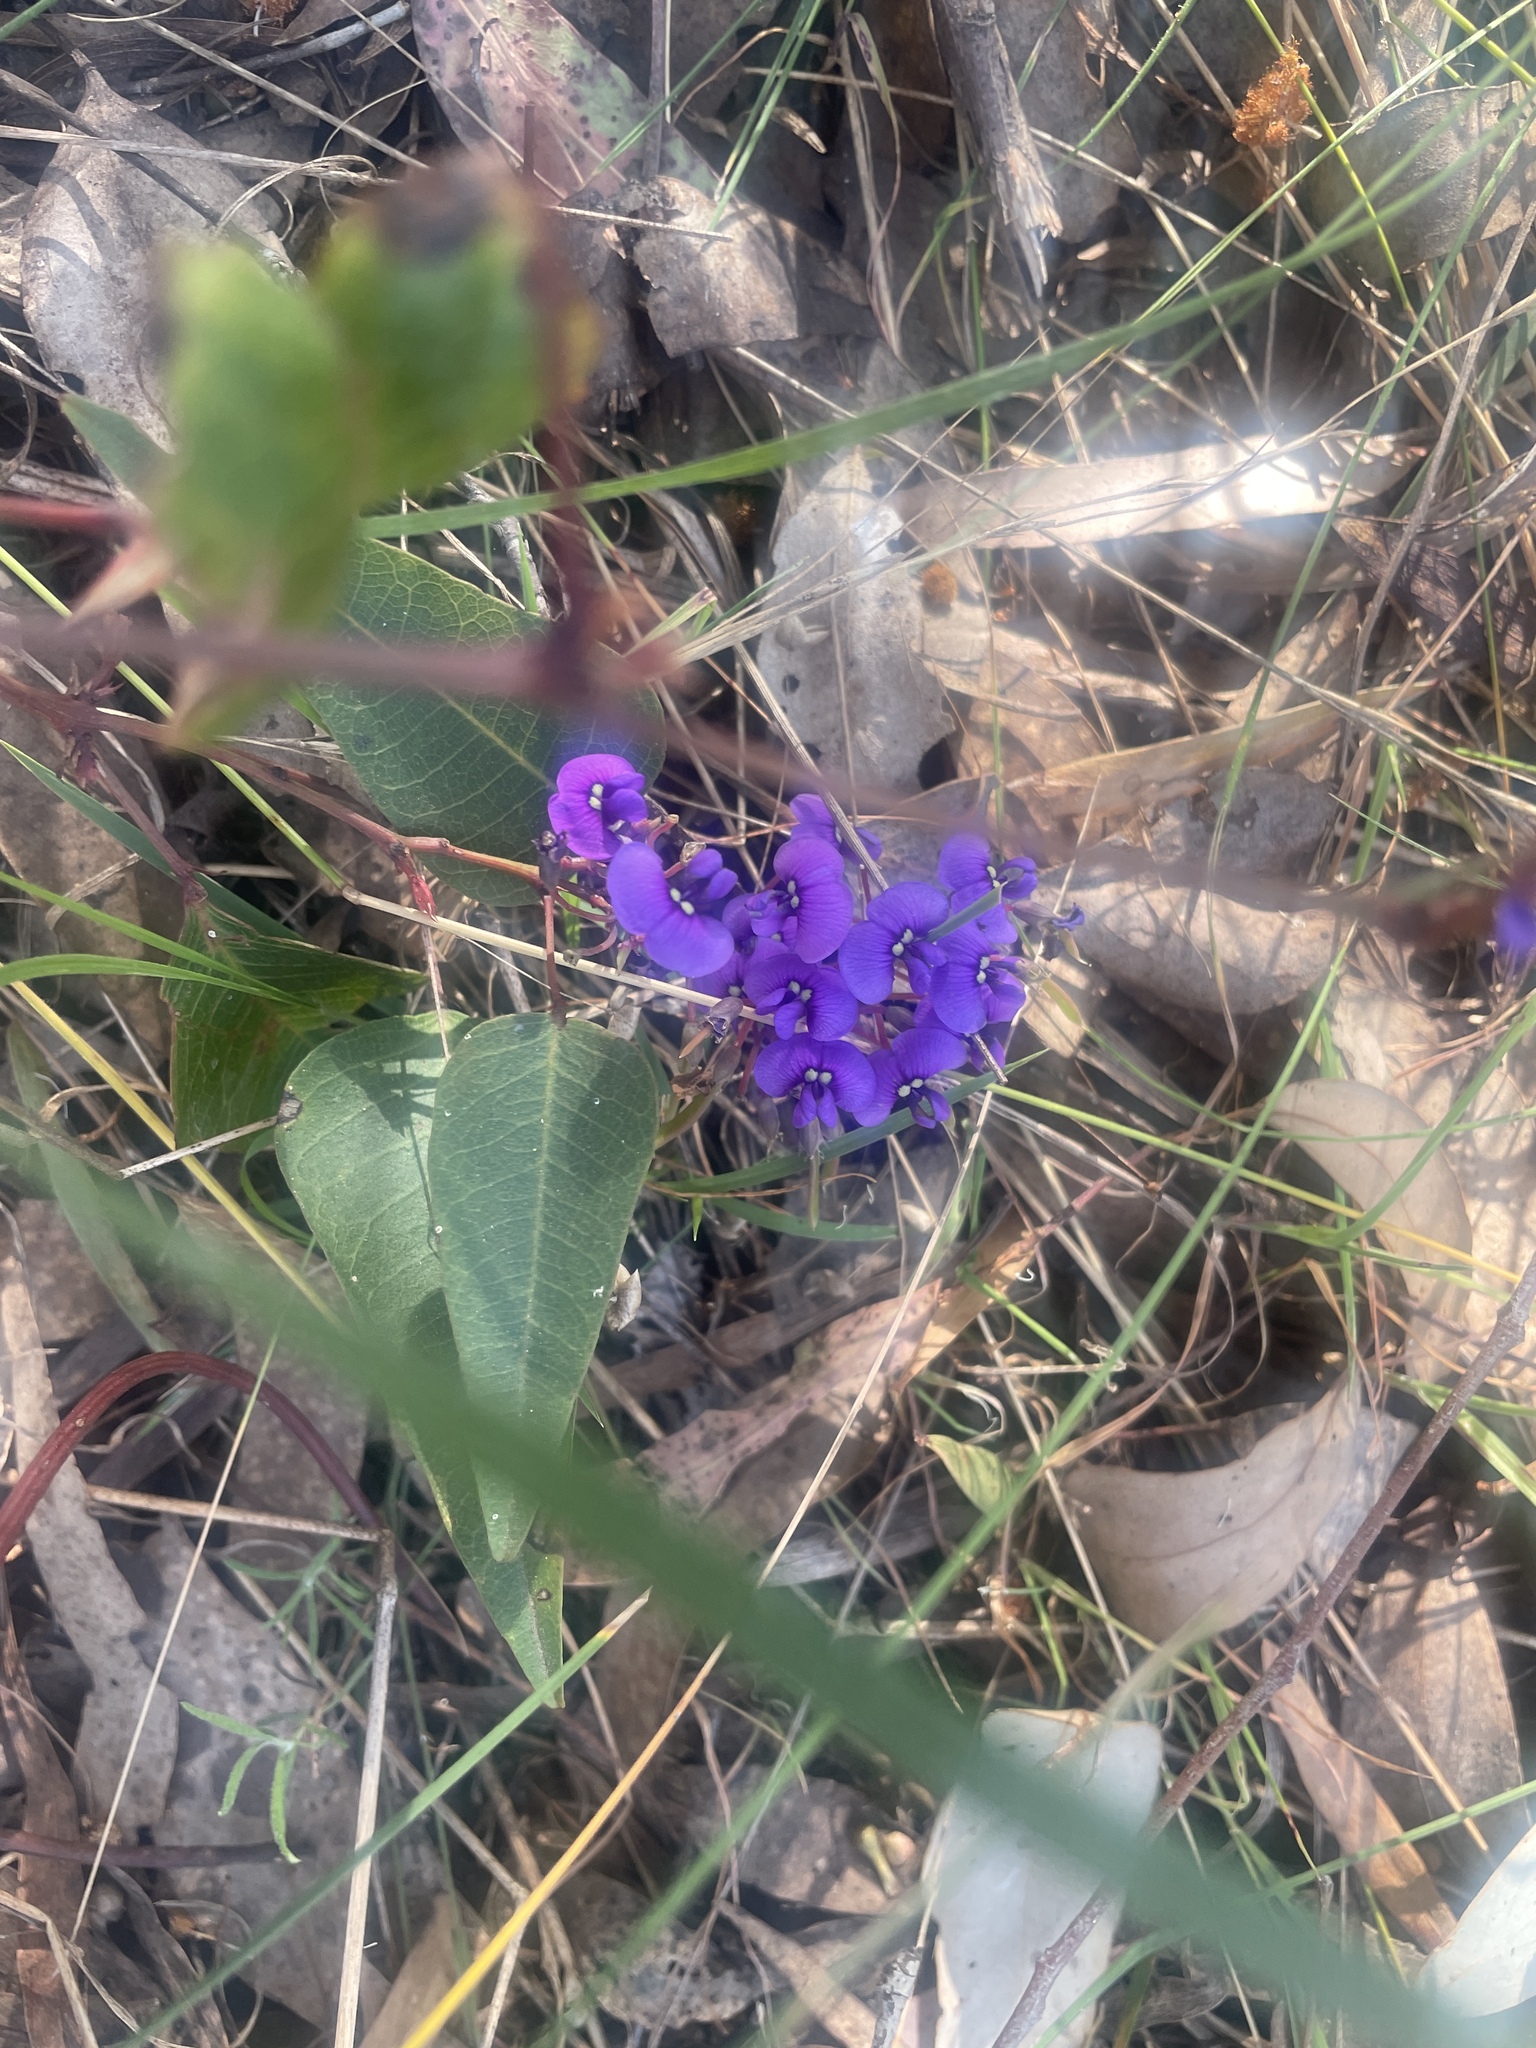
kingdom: Plantae
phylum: Tracheophyta
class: Magnoliopsida
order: Fabales
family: Fabaceae
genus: Hardenbergia
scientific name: Hardenbergia violacea
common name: Coral-pea
